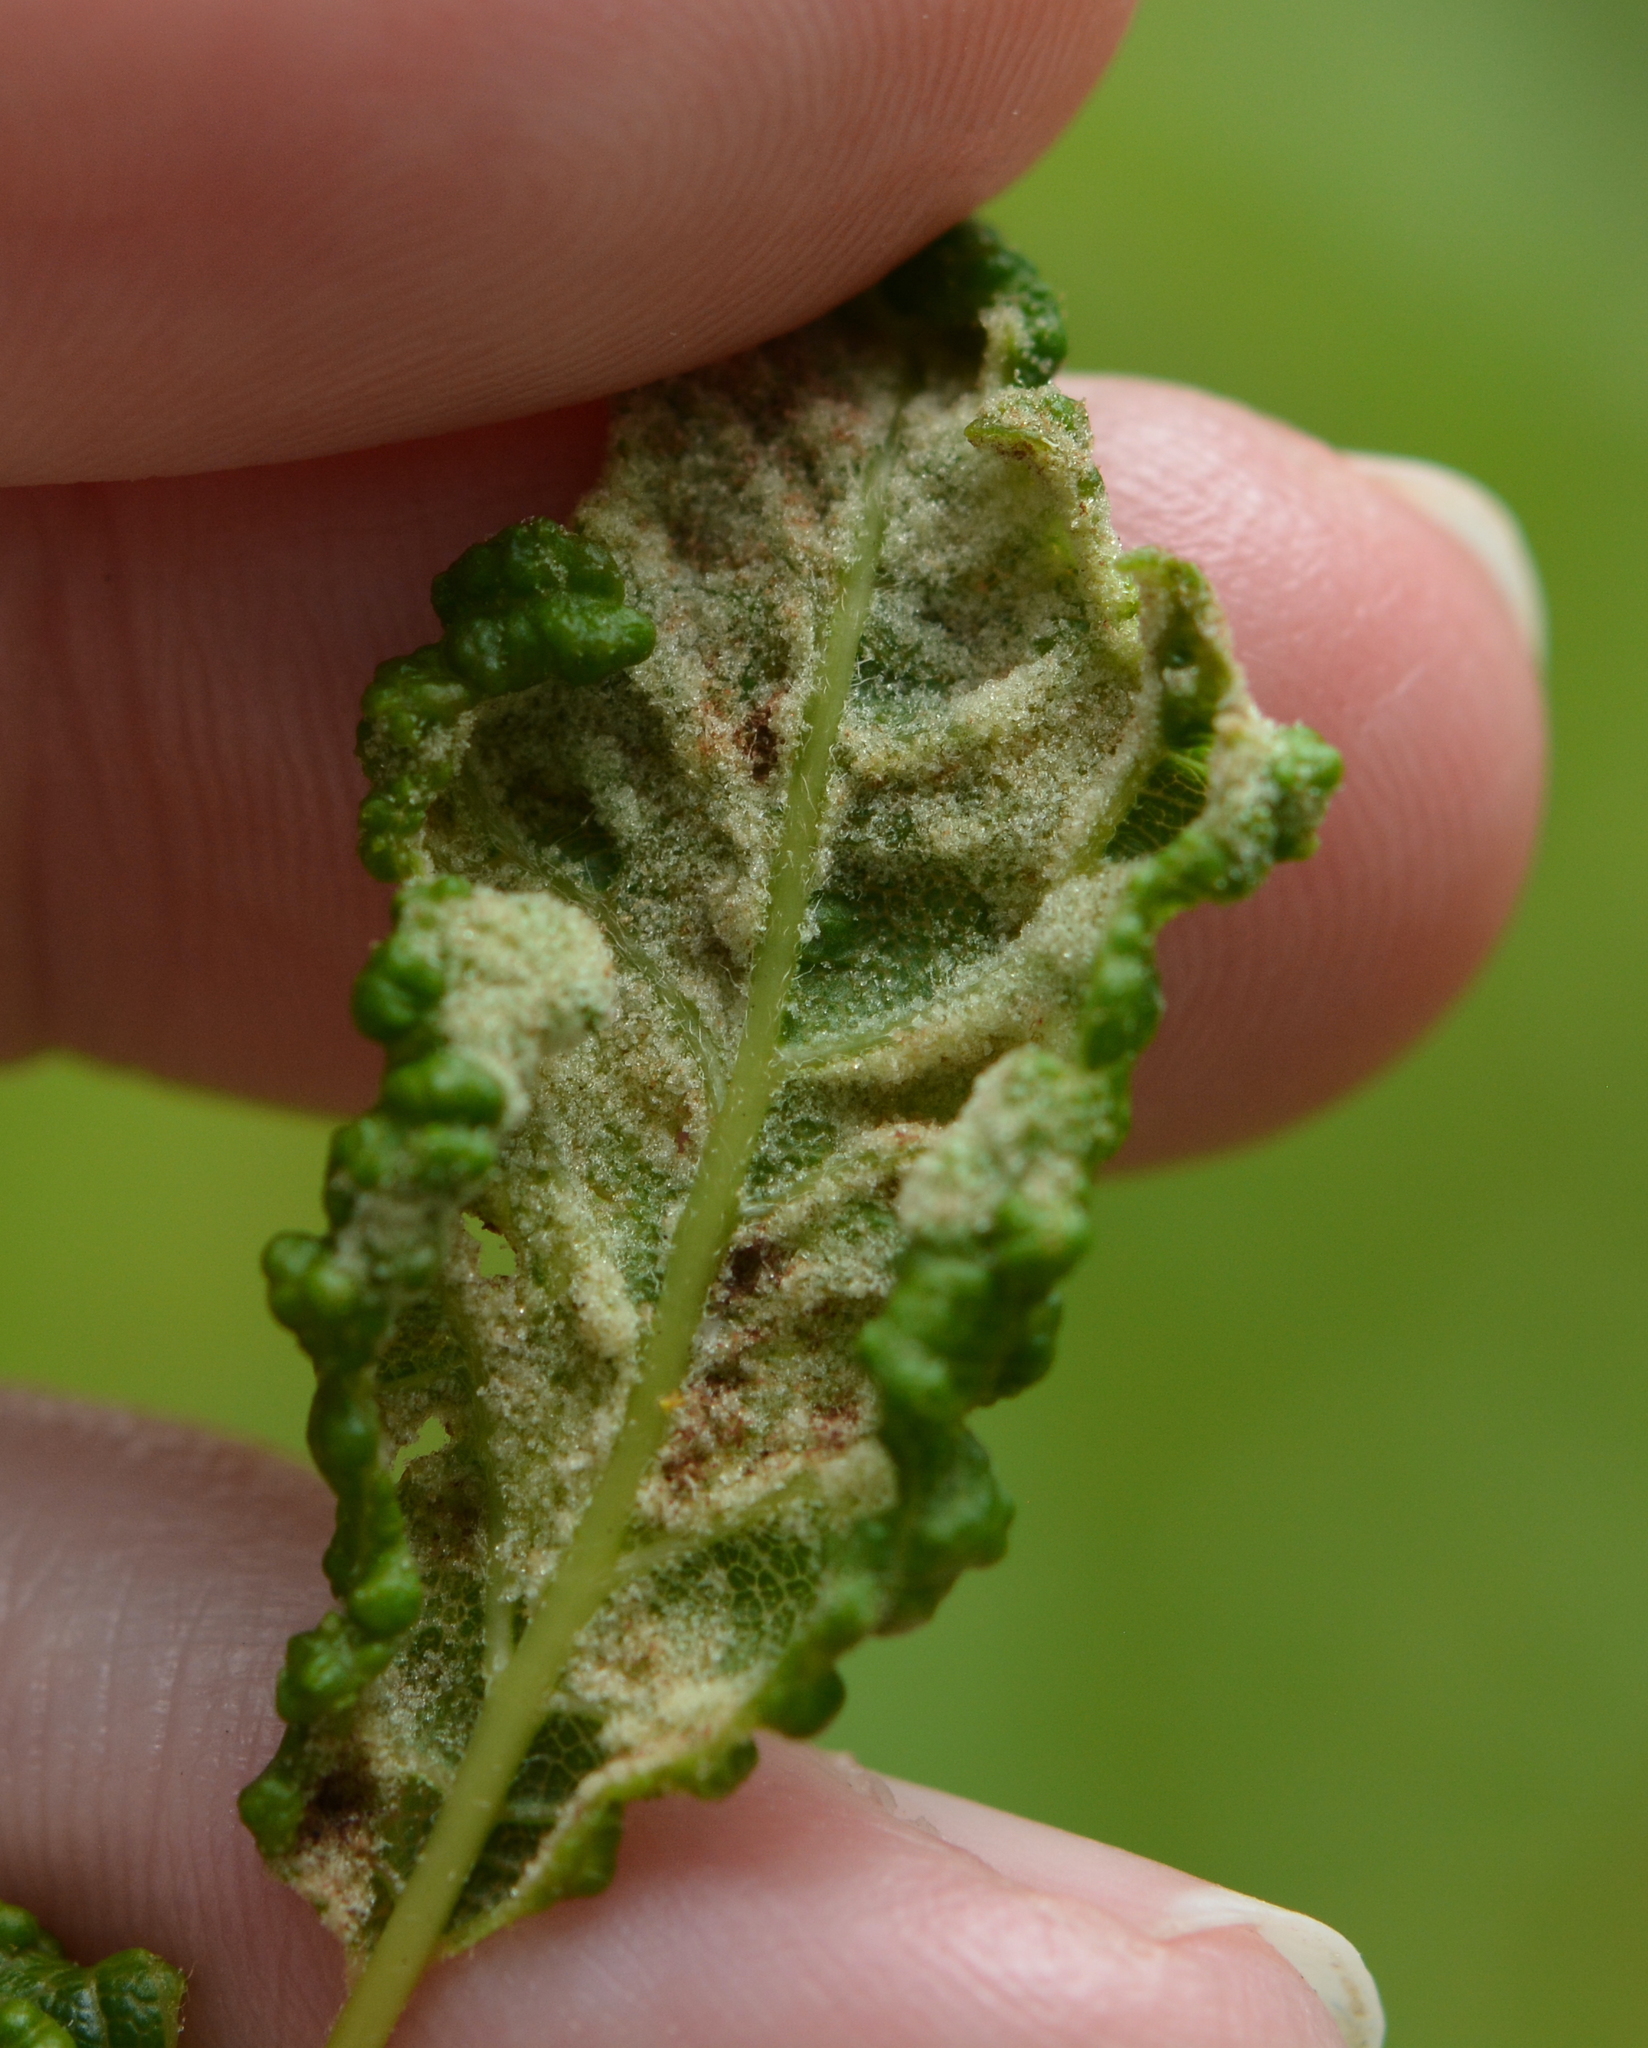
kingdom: Animalia
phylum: Arthropoda
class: Arachnida
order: Trombidiformes
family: Eriophyidae
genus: Aceria
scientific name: Aceria
